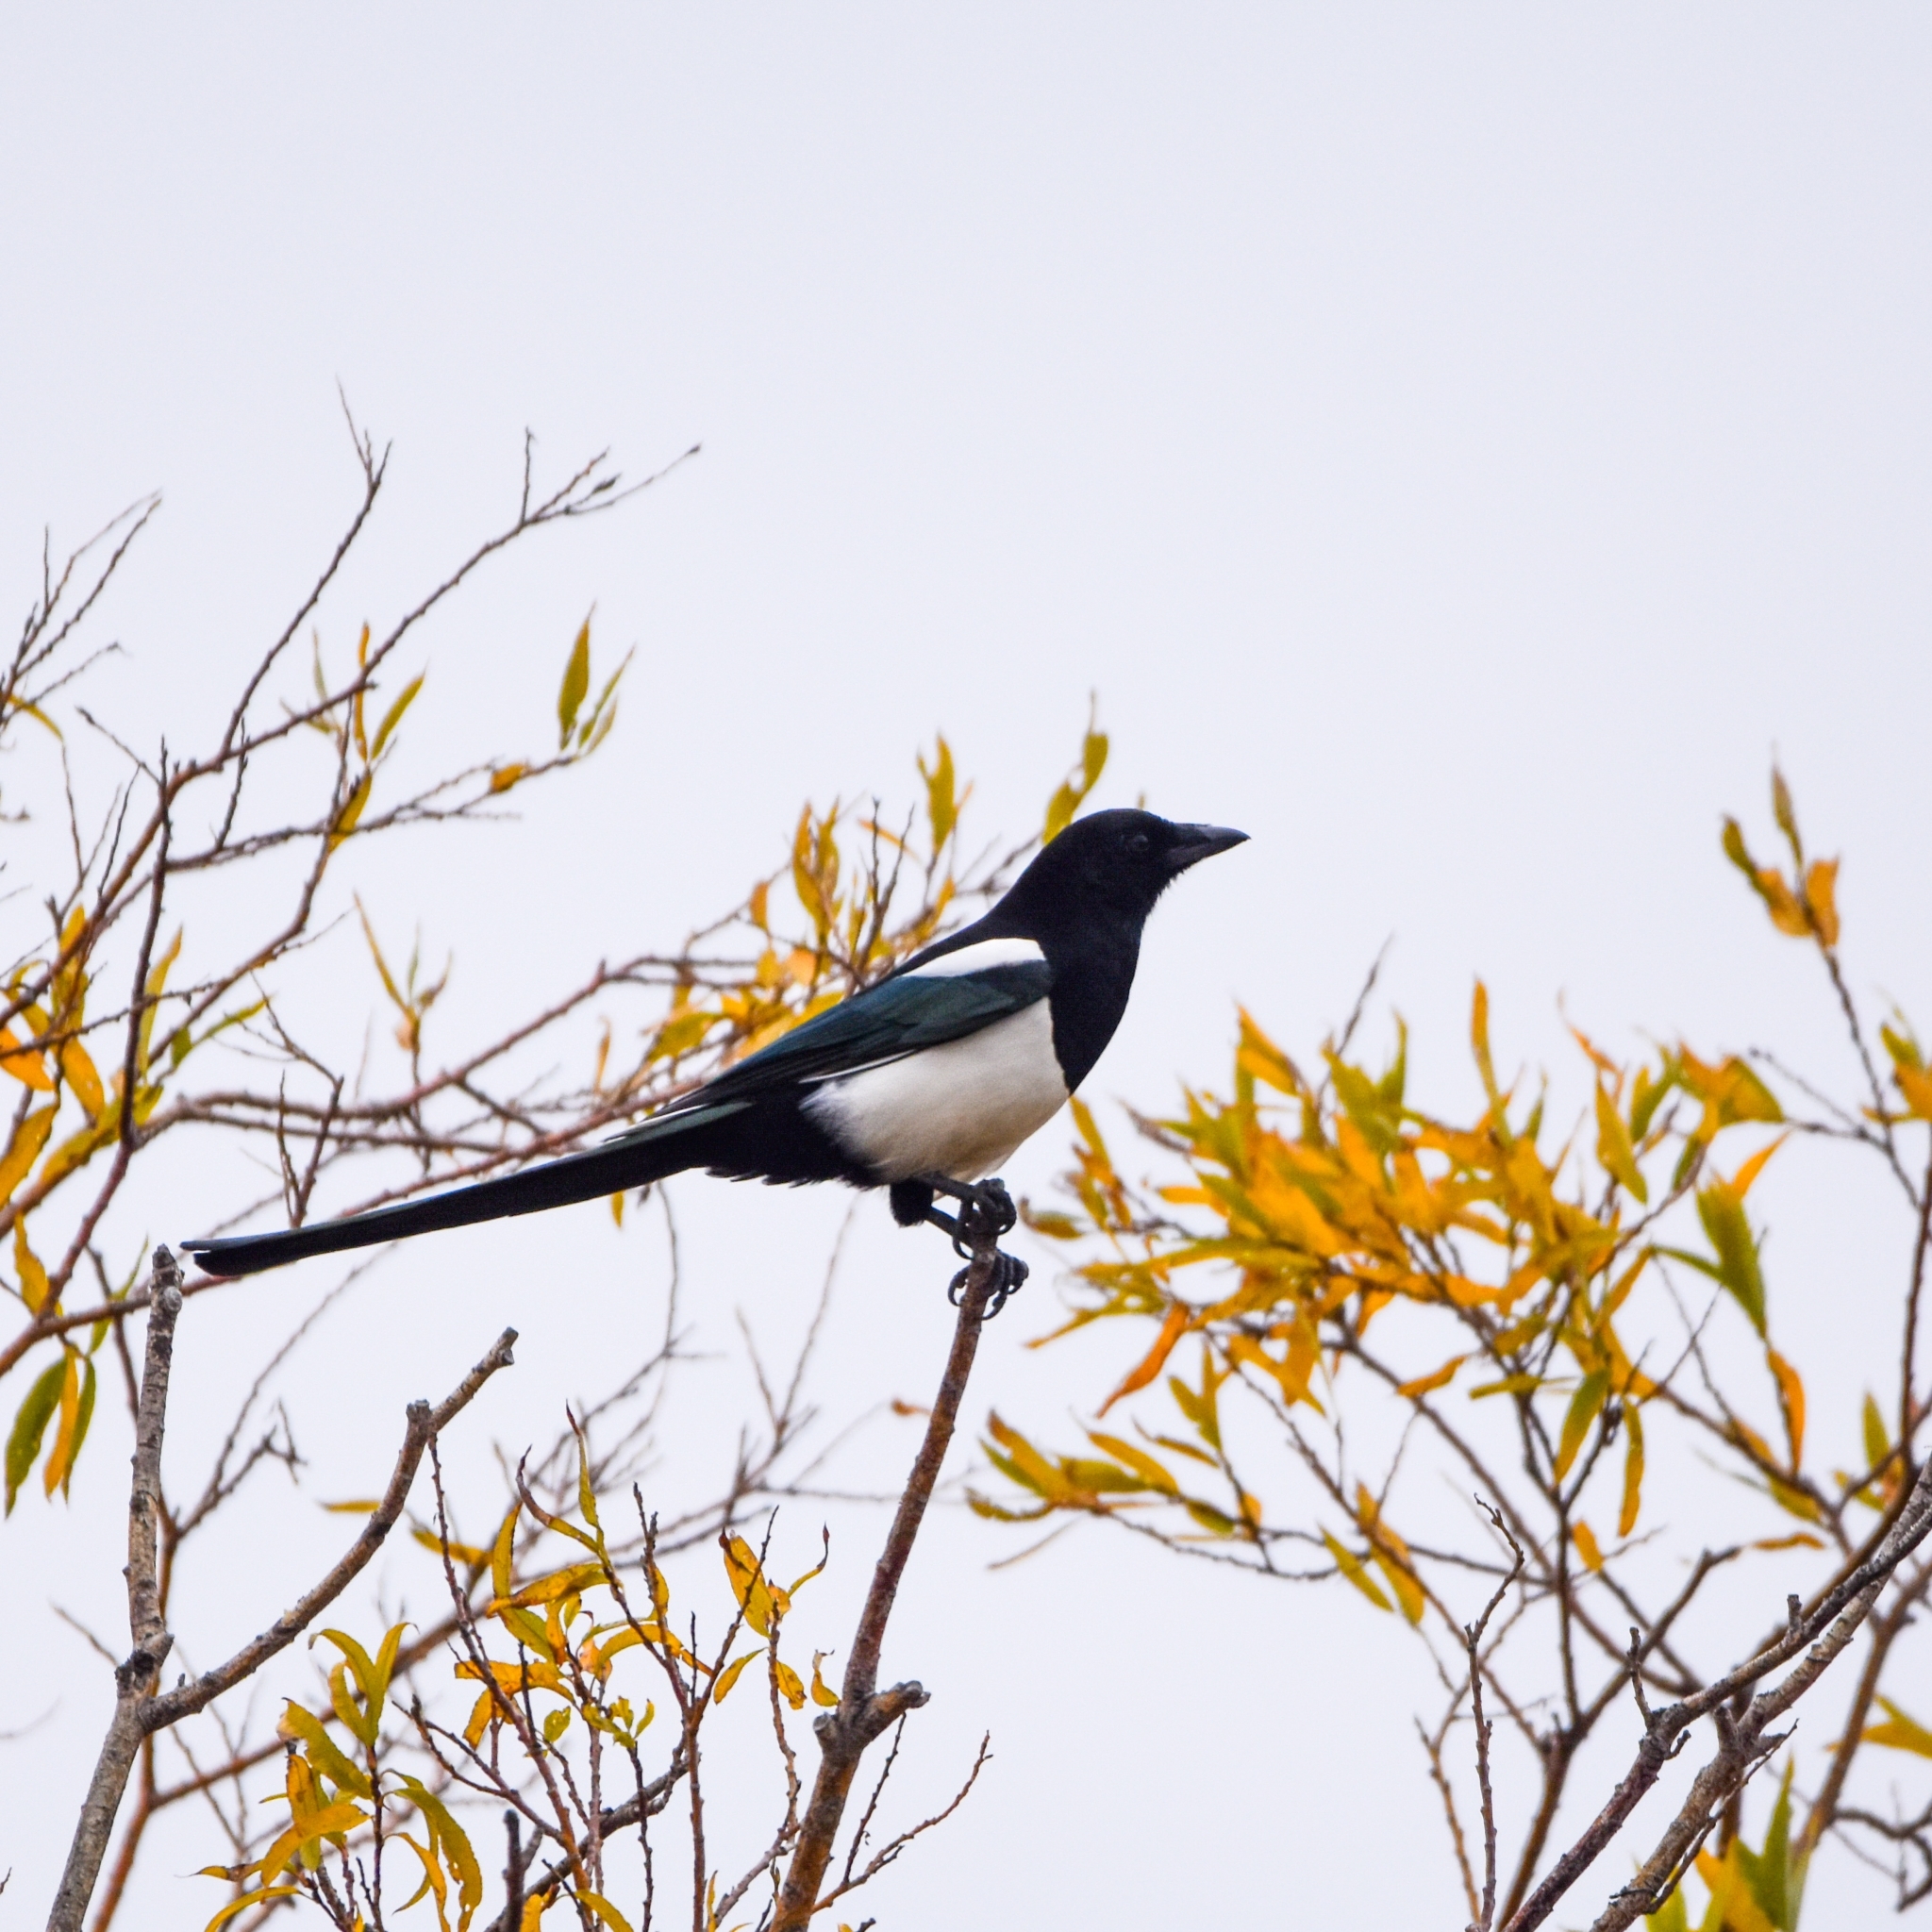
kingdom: Animalia
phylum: Chordata
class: Aves
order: Passeriformes
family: Corvidae
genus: Pica
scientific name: Pica pica
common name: Eurasian magpie
